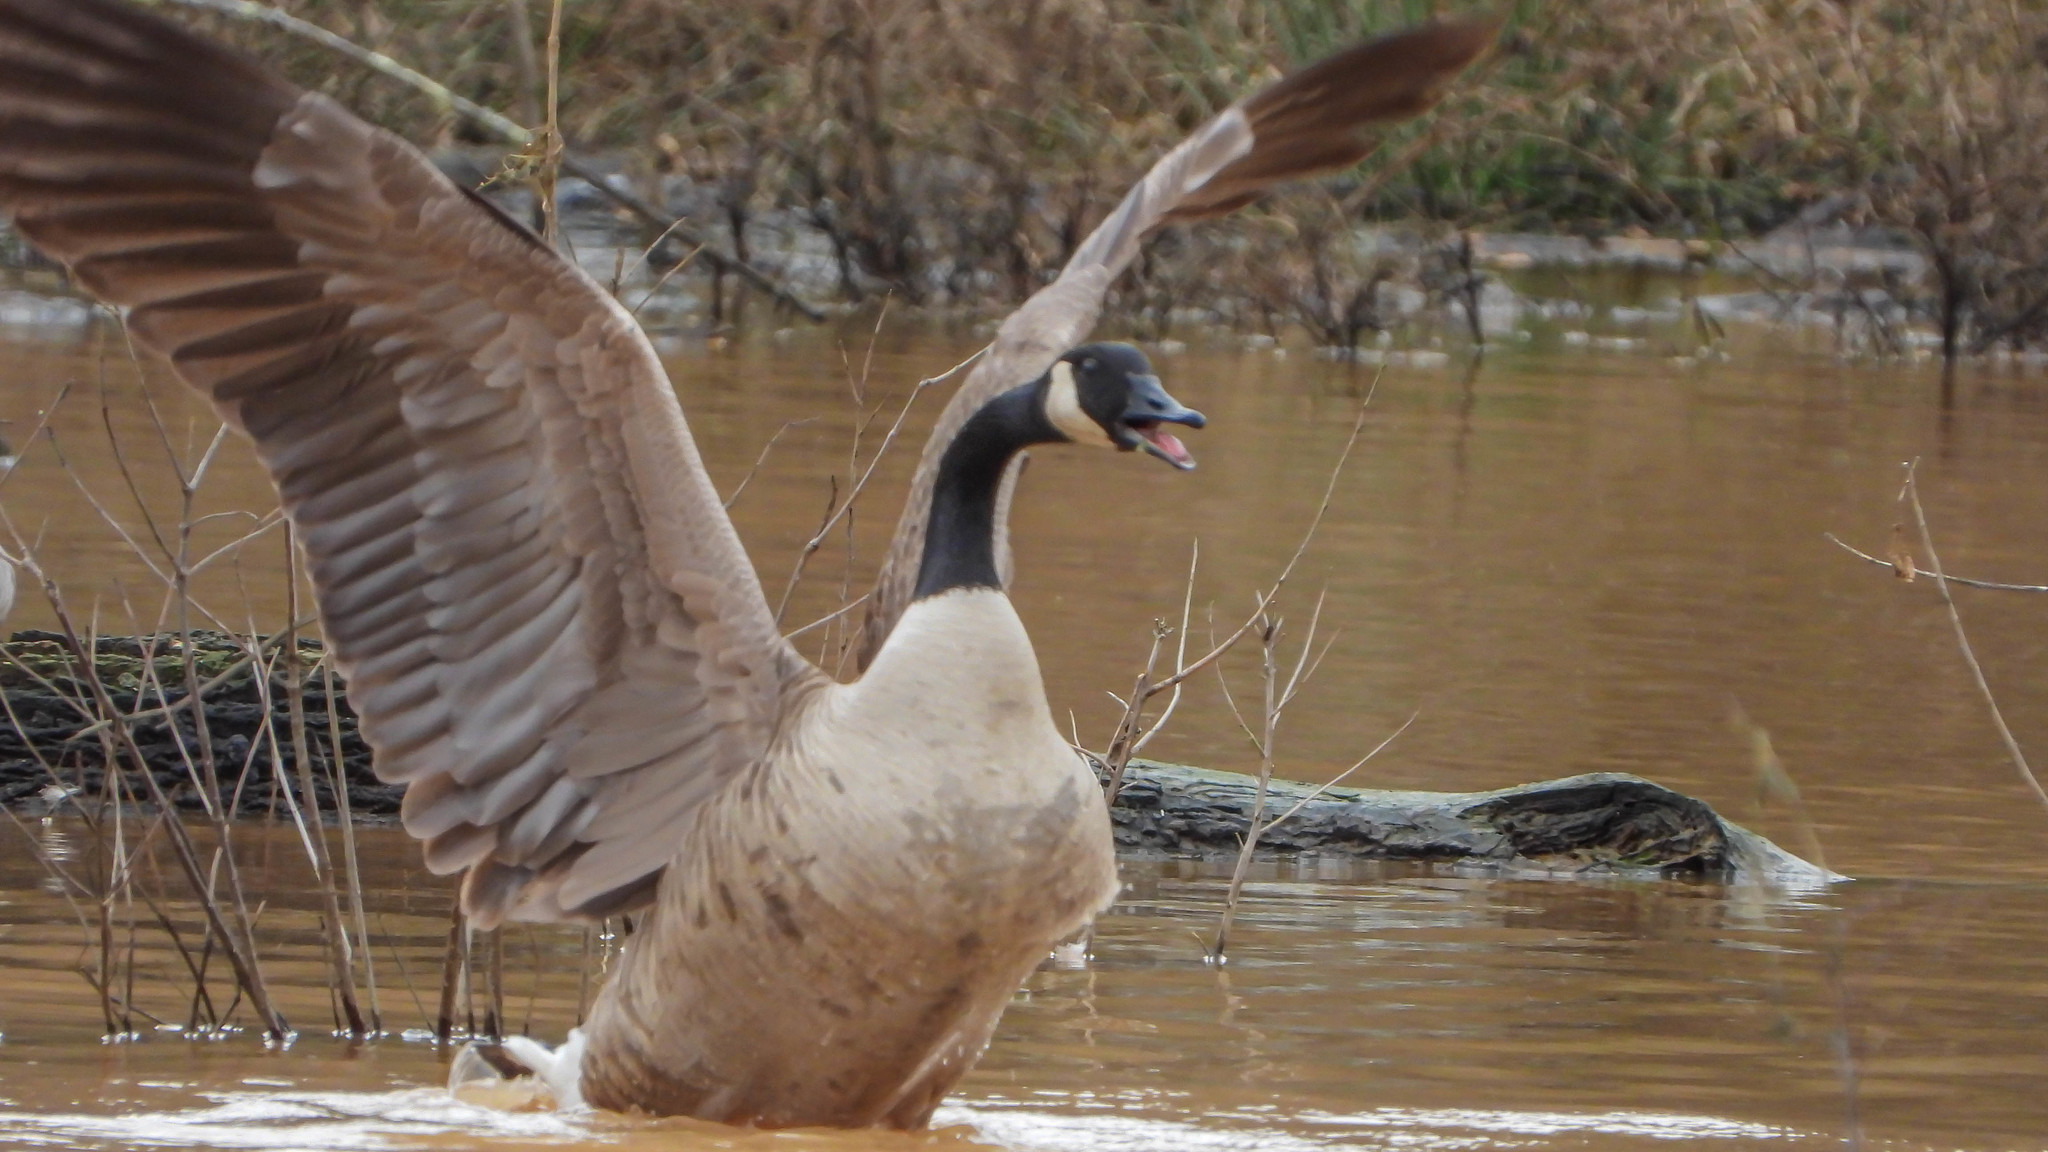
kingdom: Animalia
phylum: Chordata
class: Aves
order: Anseriformes
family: Anatidae
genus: Branta
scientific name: Branta canadensis
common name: Canada goose
